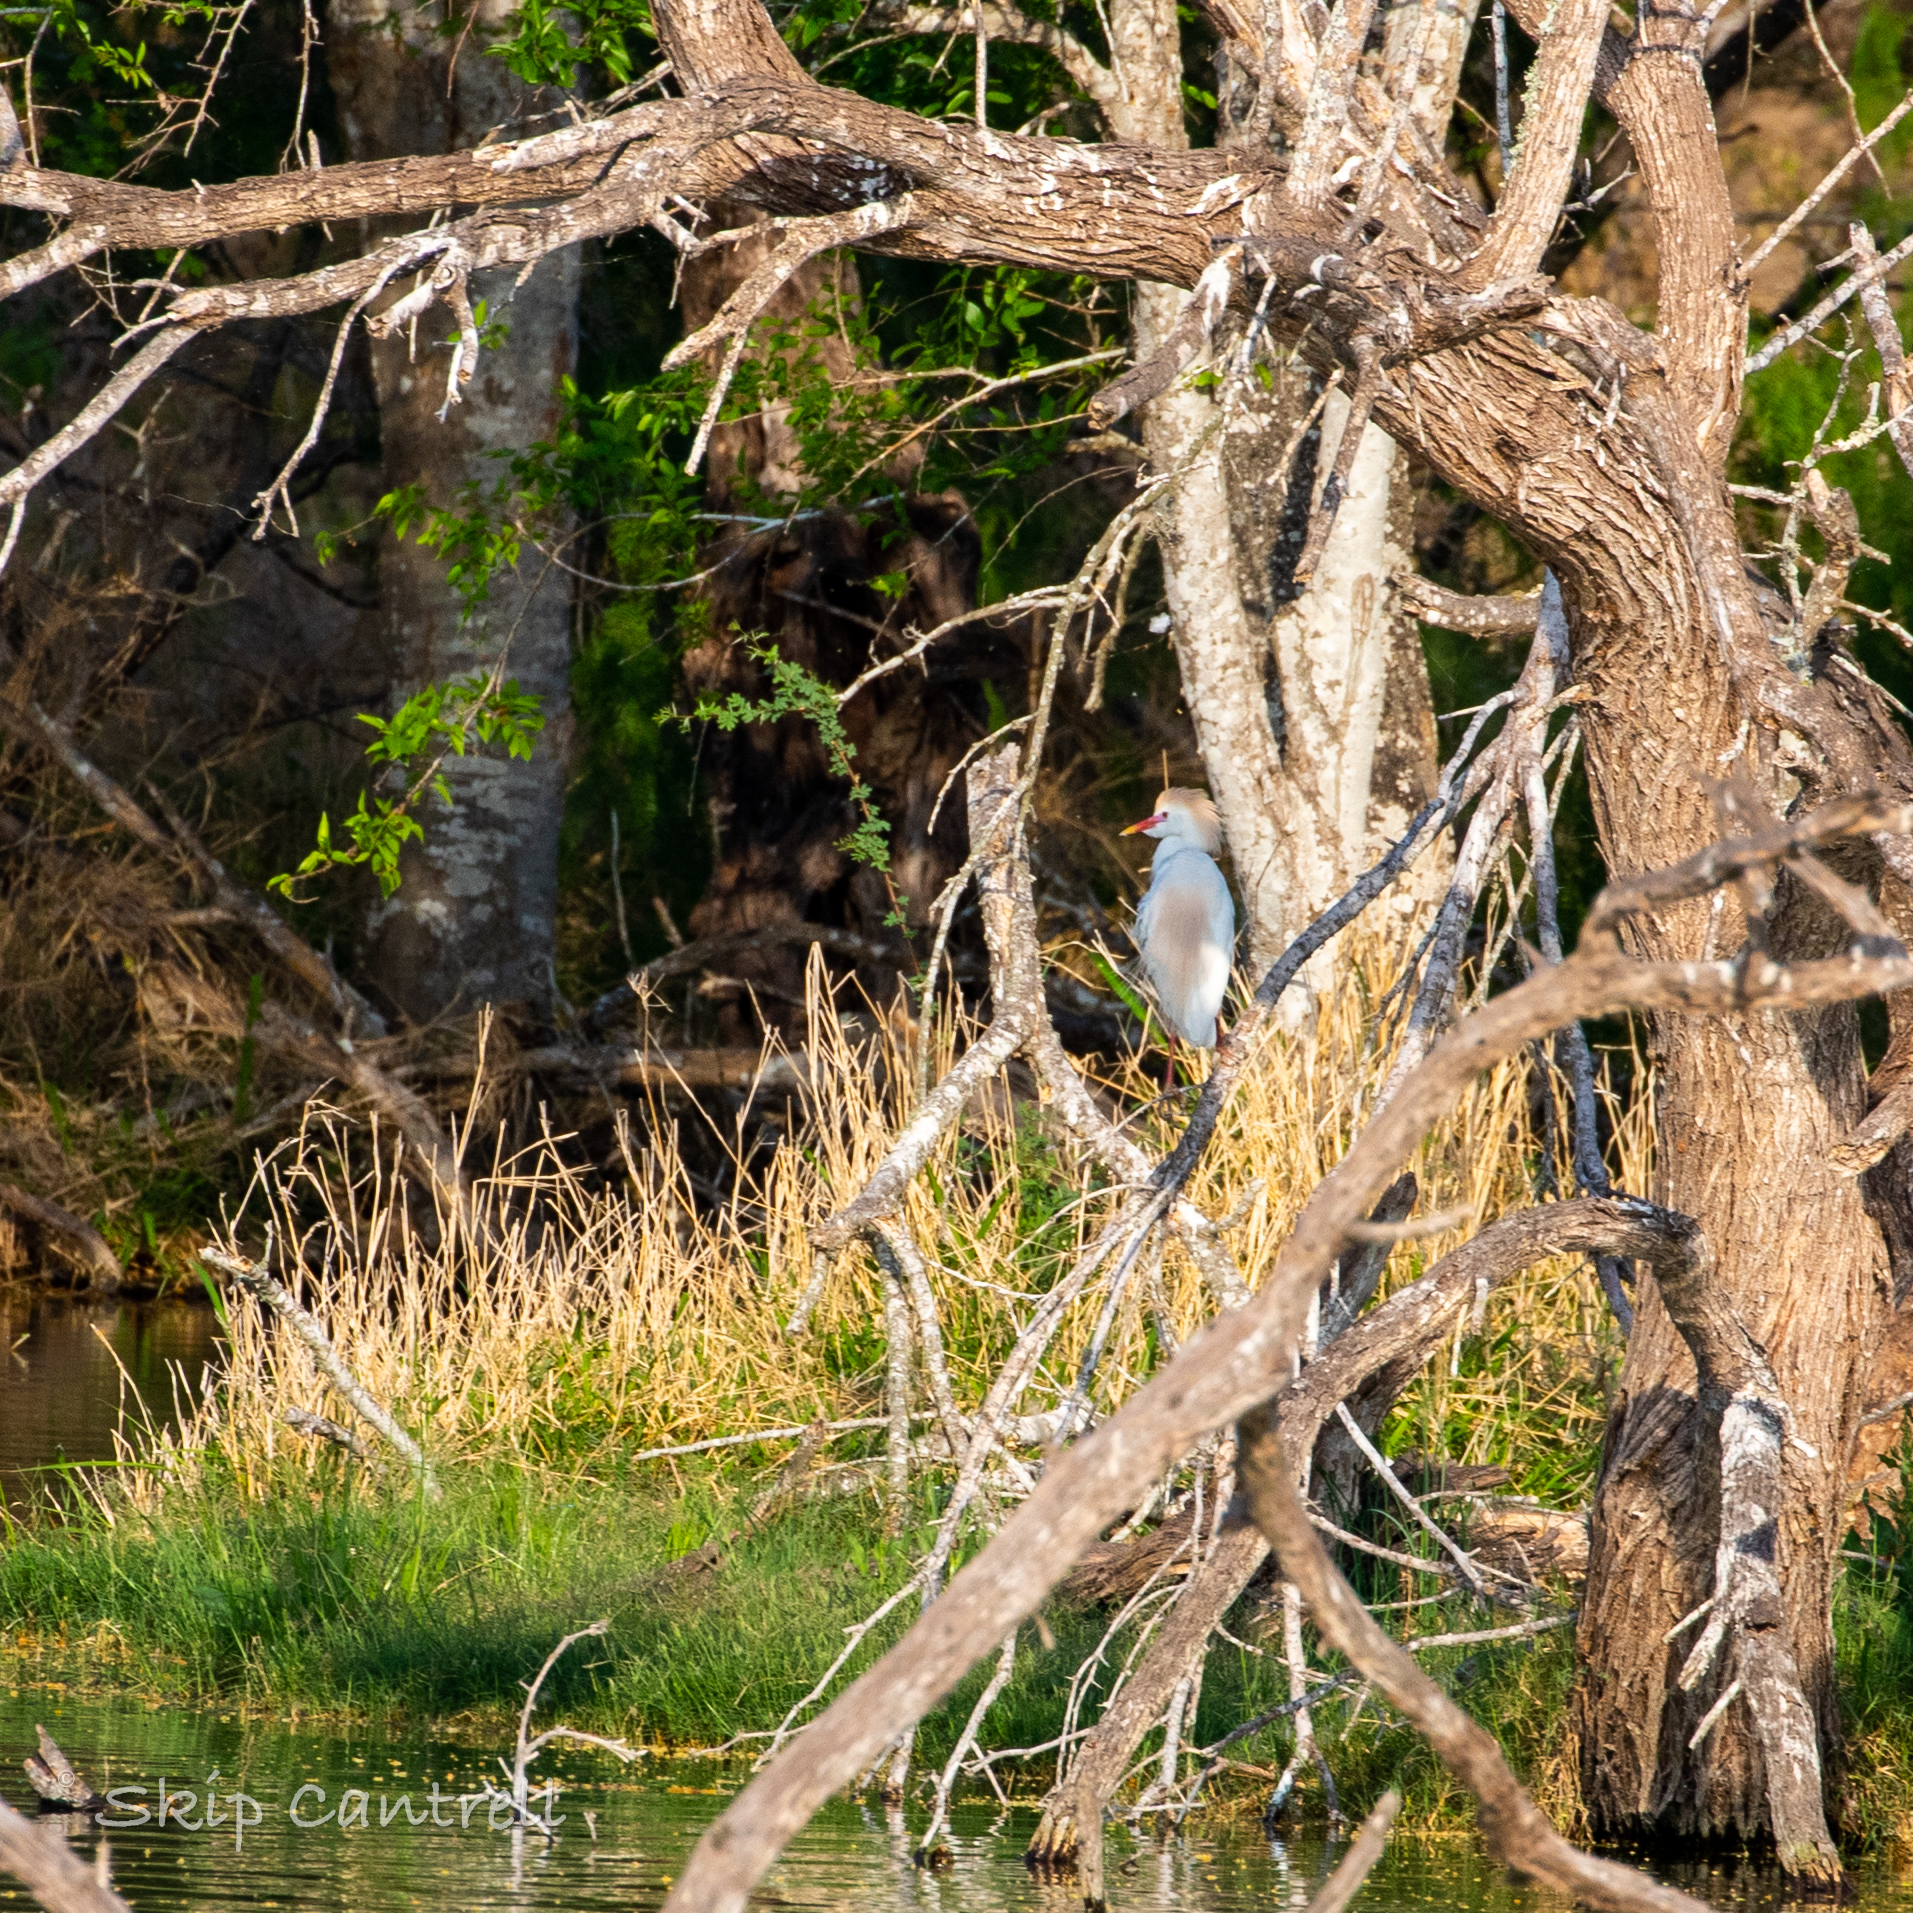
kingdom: Animalia
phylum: Chordata
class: Aves
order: Pelecaniformes
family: Ardeidae
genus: Bubulcus
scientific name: Bubulcus ibis
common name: Cattle egret
